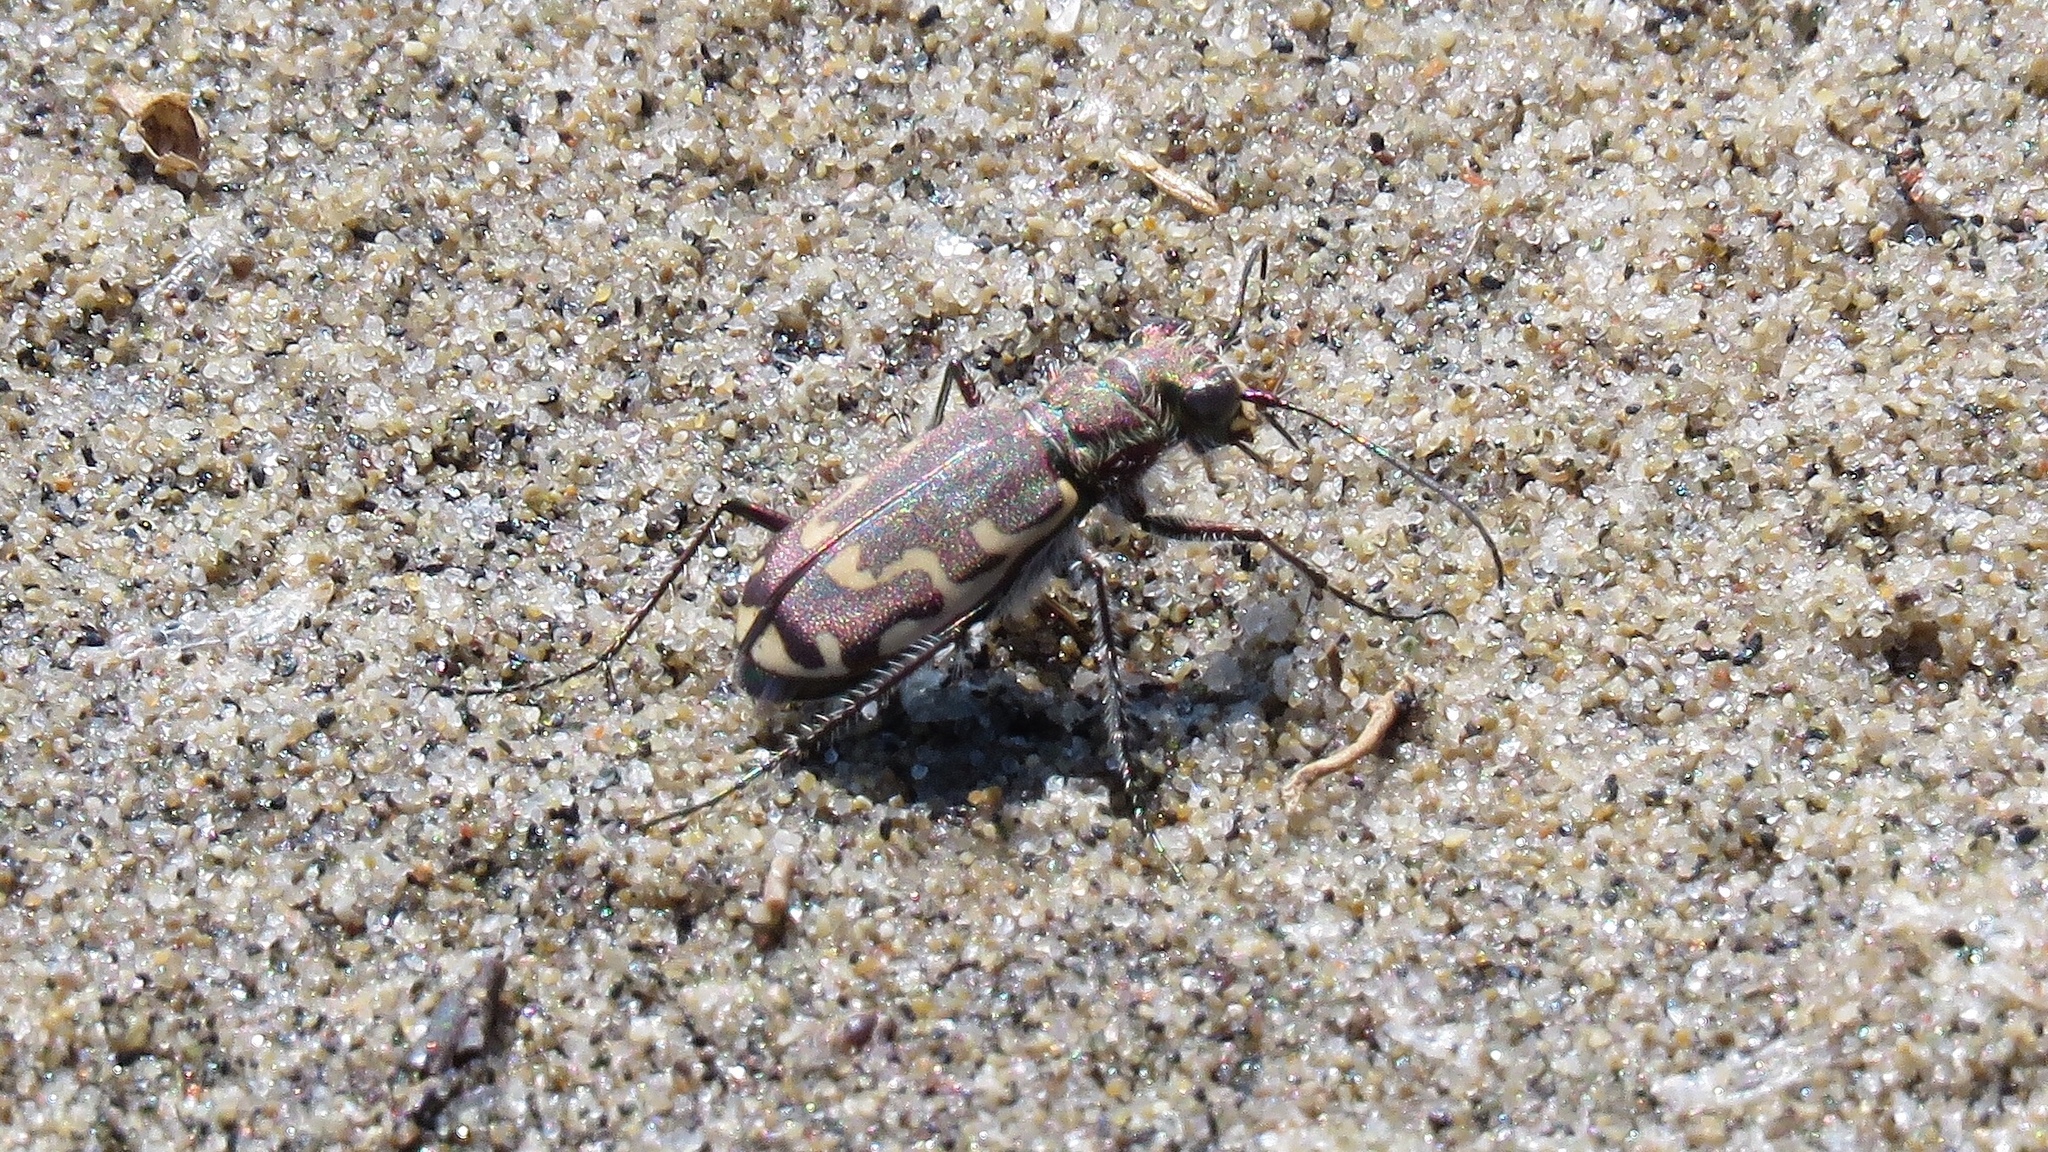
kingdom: Animalia
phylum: Arthropoda
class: Insecta
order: Coleoptera
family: Carabidae
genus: Cicindela
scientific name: Cicindela repanda
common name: Bronzed tiger beetle
